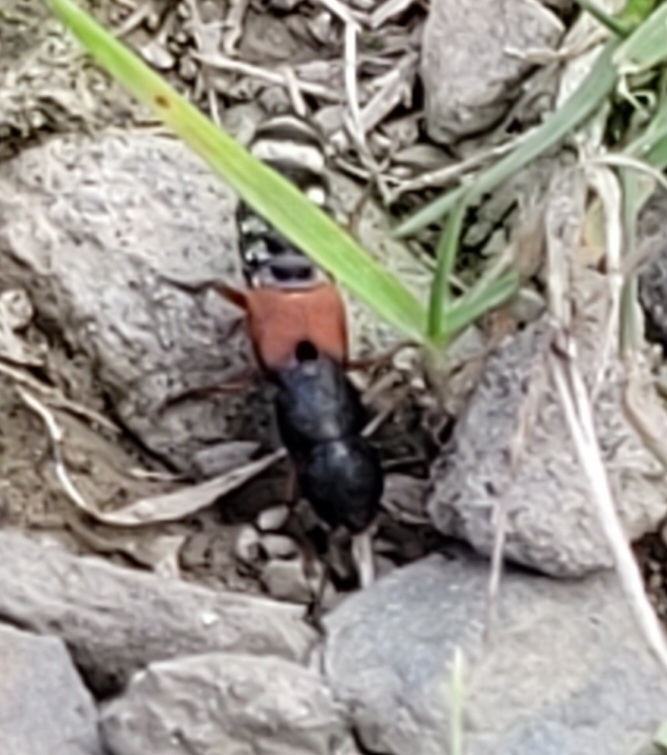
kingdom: Animalia
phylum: Arthropoda
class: Insecta
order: Coleoptera
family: Staphylinidae
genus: Platydracus
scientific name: Platydracus stercorarius
